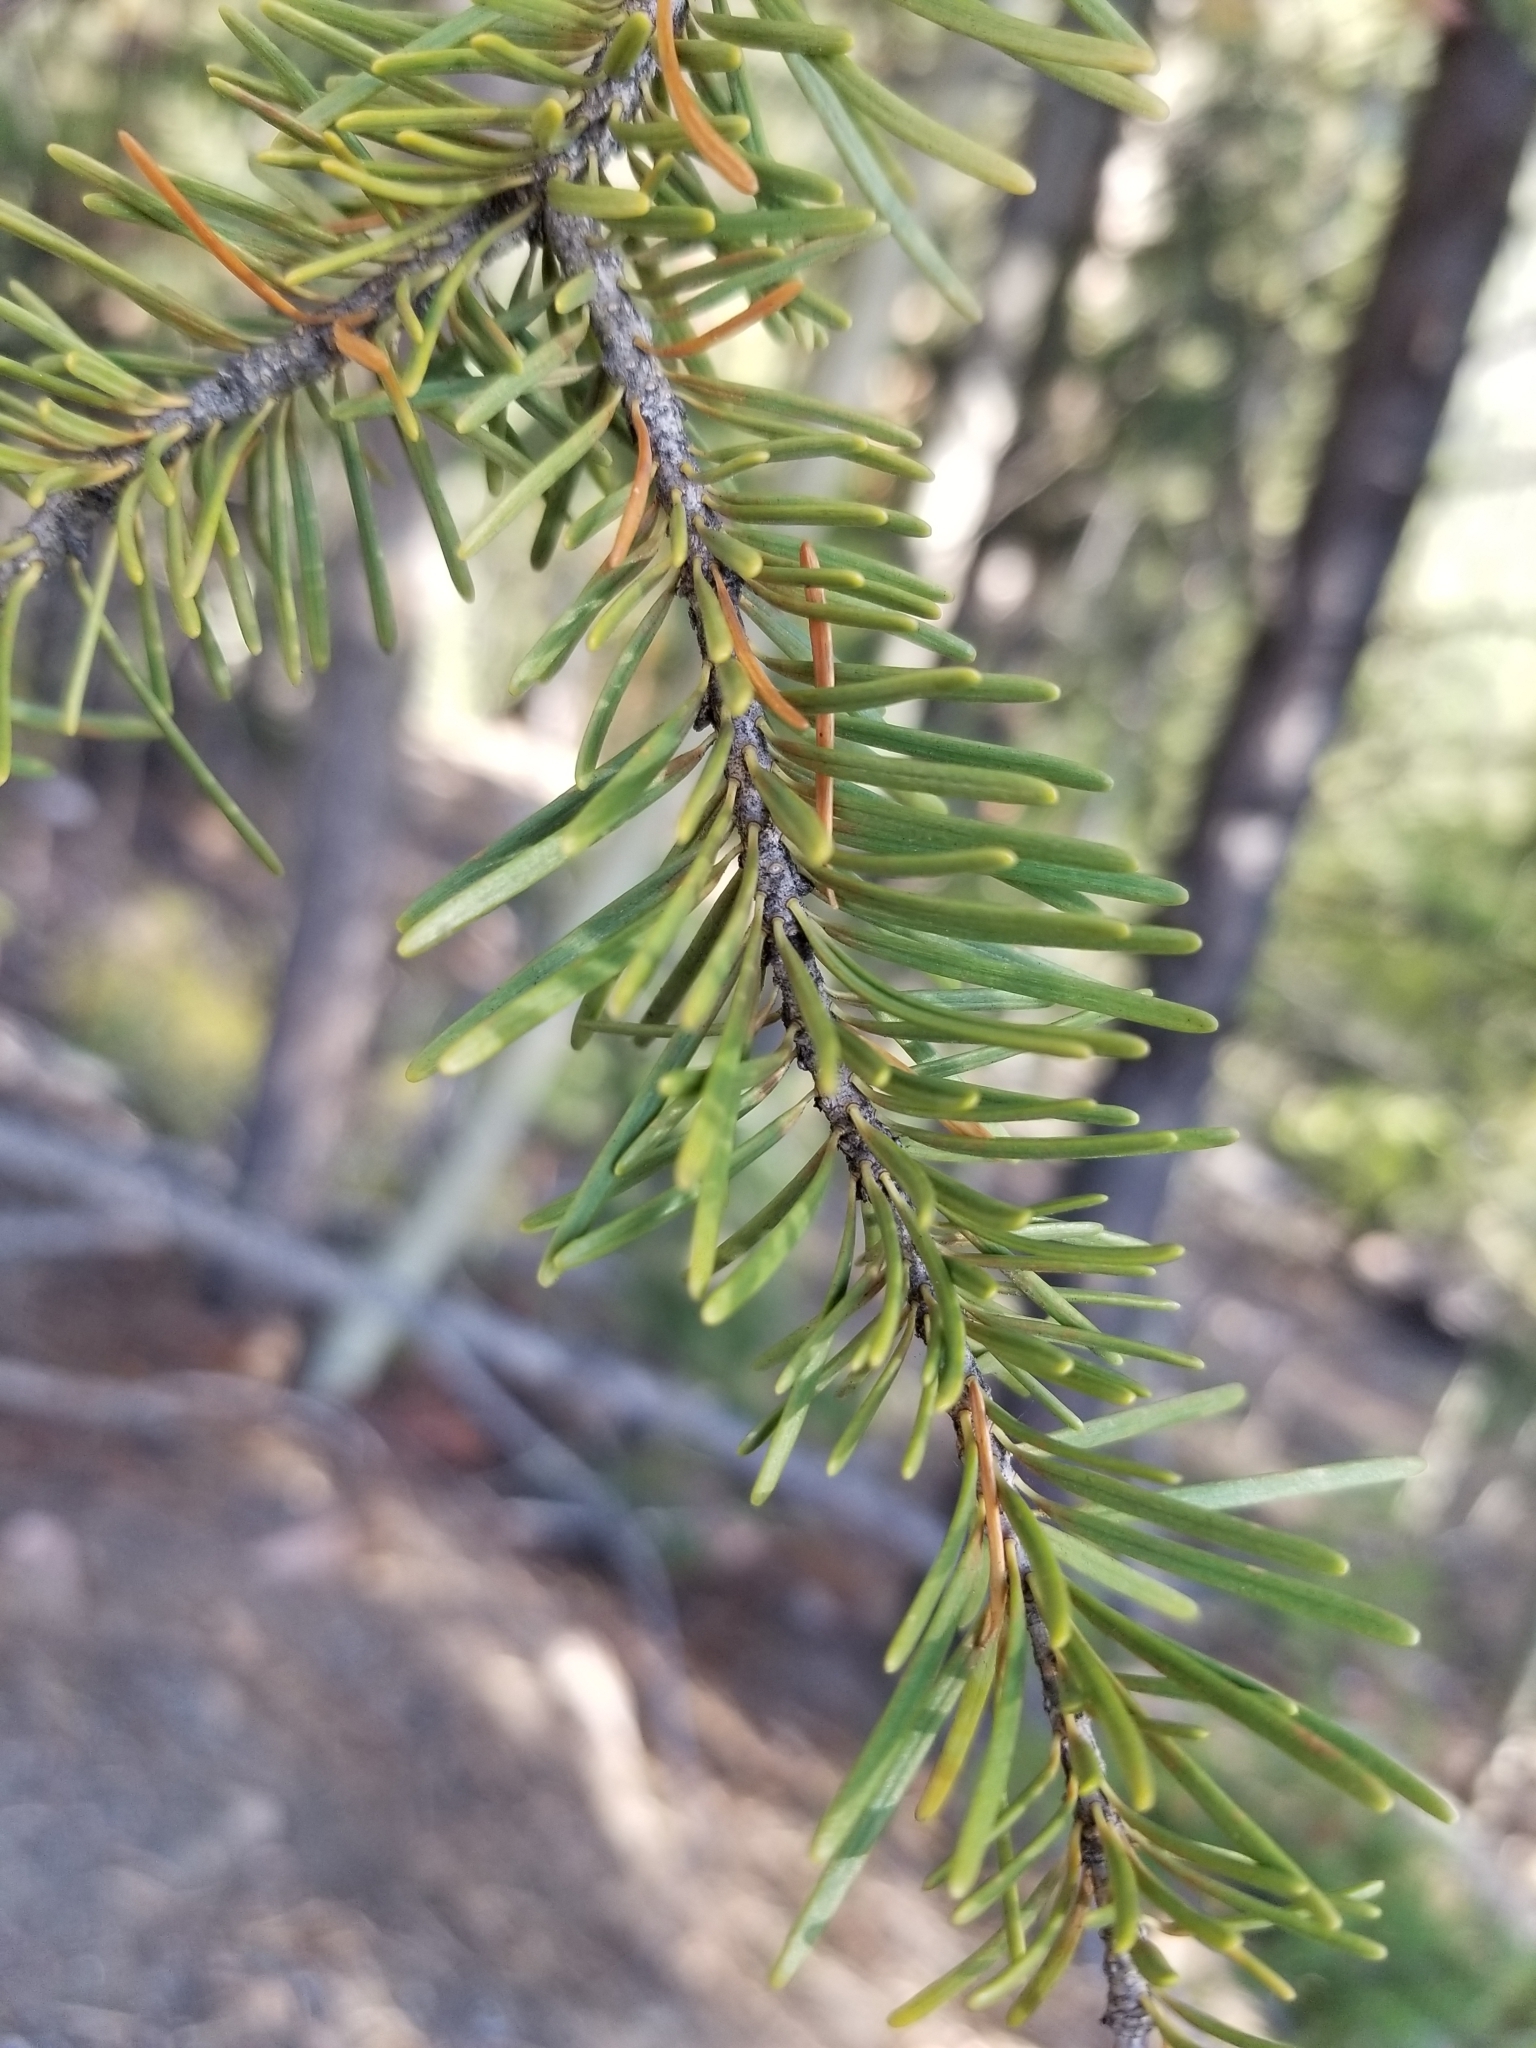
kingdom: Plantae
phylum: Tracheophyta
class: Pinopsida
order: Pinales
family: Pinaceae
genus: Pseudotsuga
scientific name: Pseudotsuga menziesii
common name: Douglas fir
